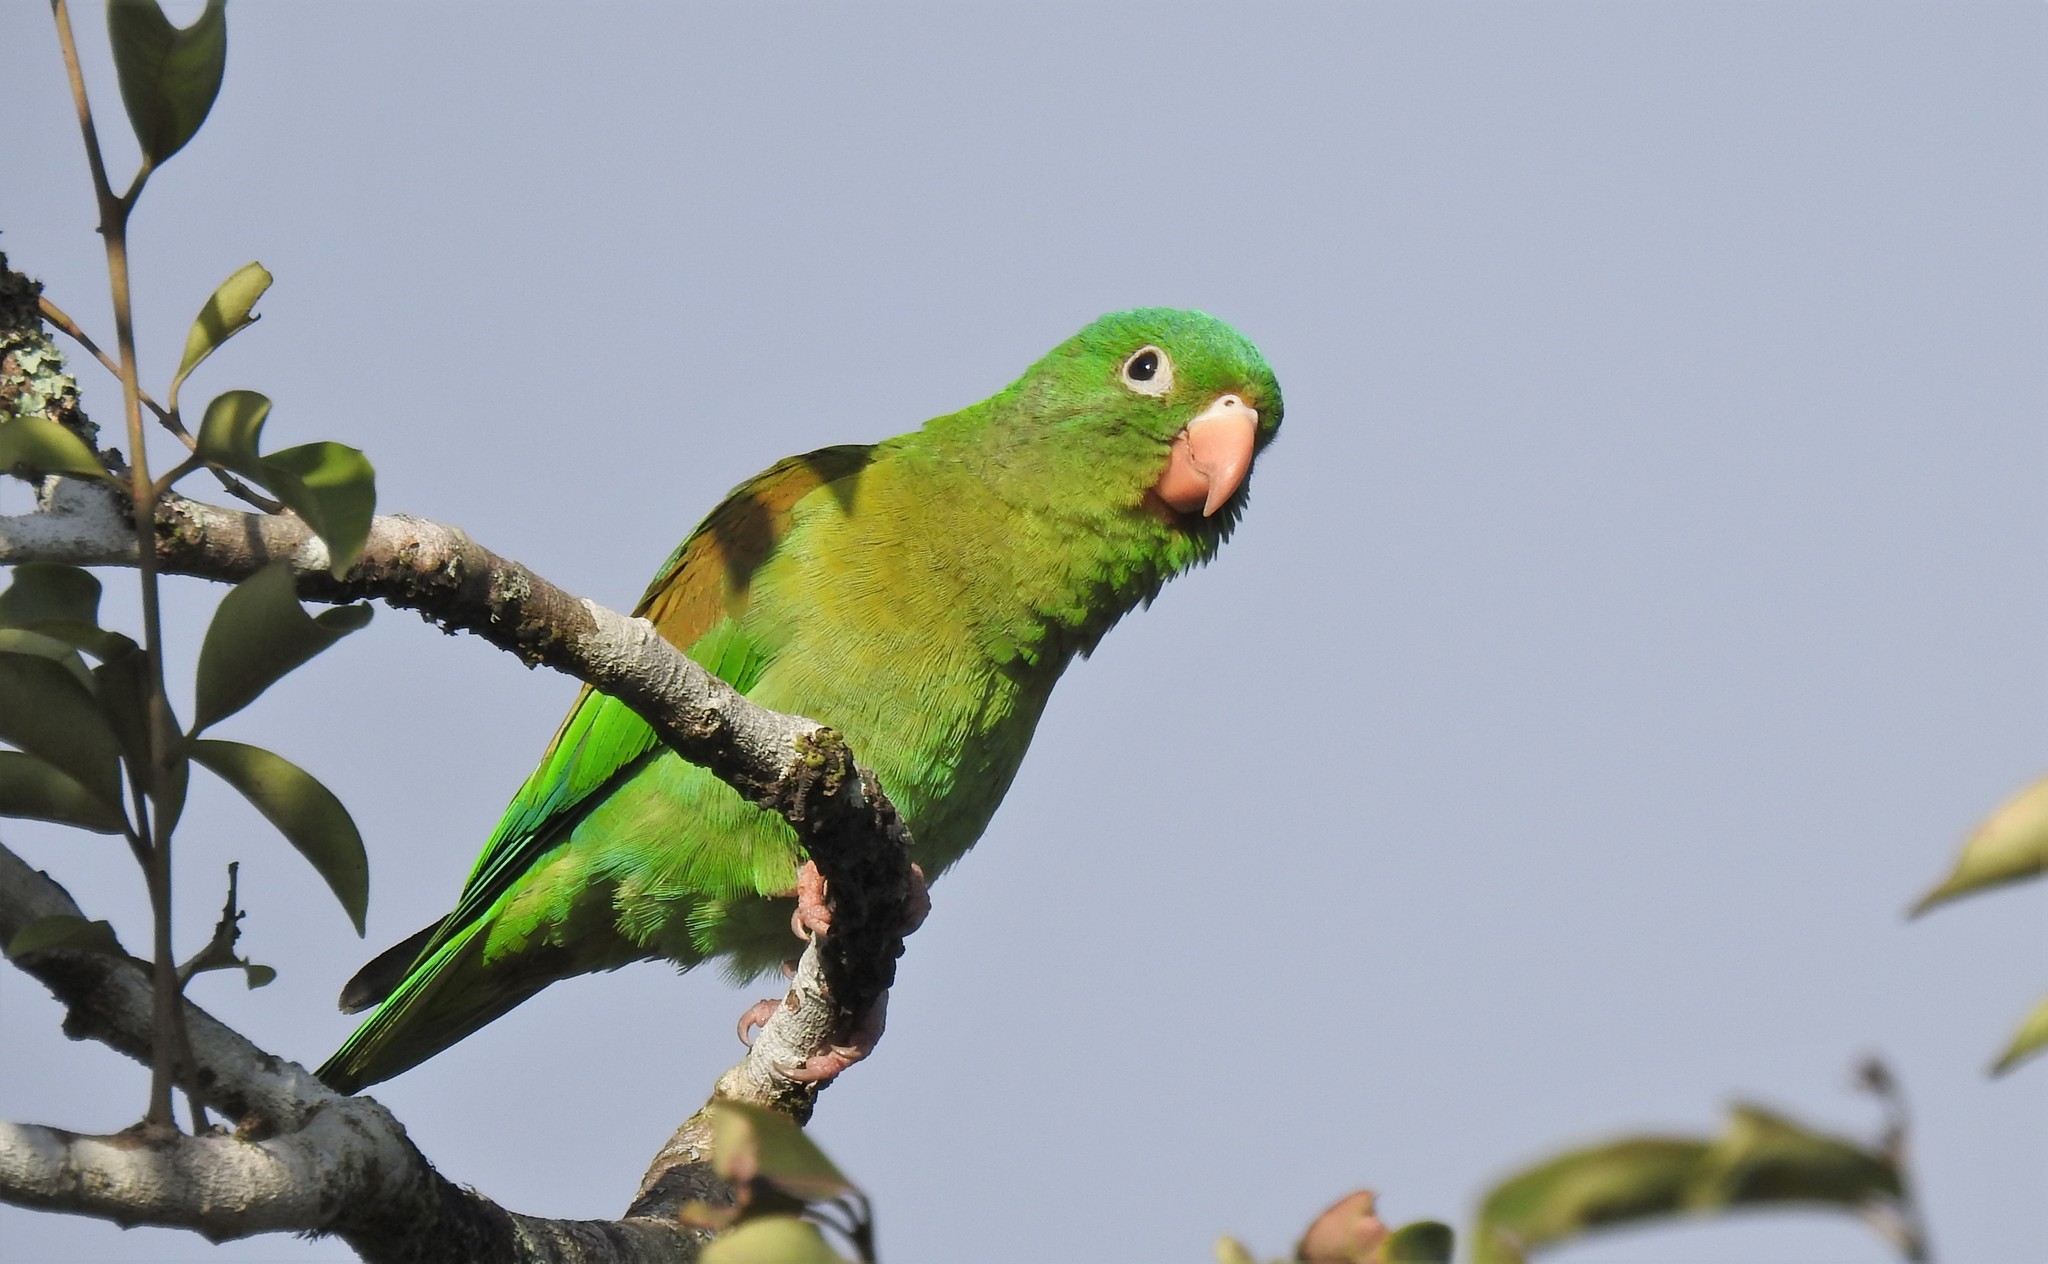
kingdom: Animalia
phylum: Chordata
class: Aves
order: Psittaciformes
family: Psittacidae
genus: Brotogeris
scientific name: Brotogeris jugularis
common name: Orange-chinned parakeet
